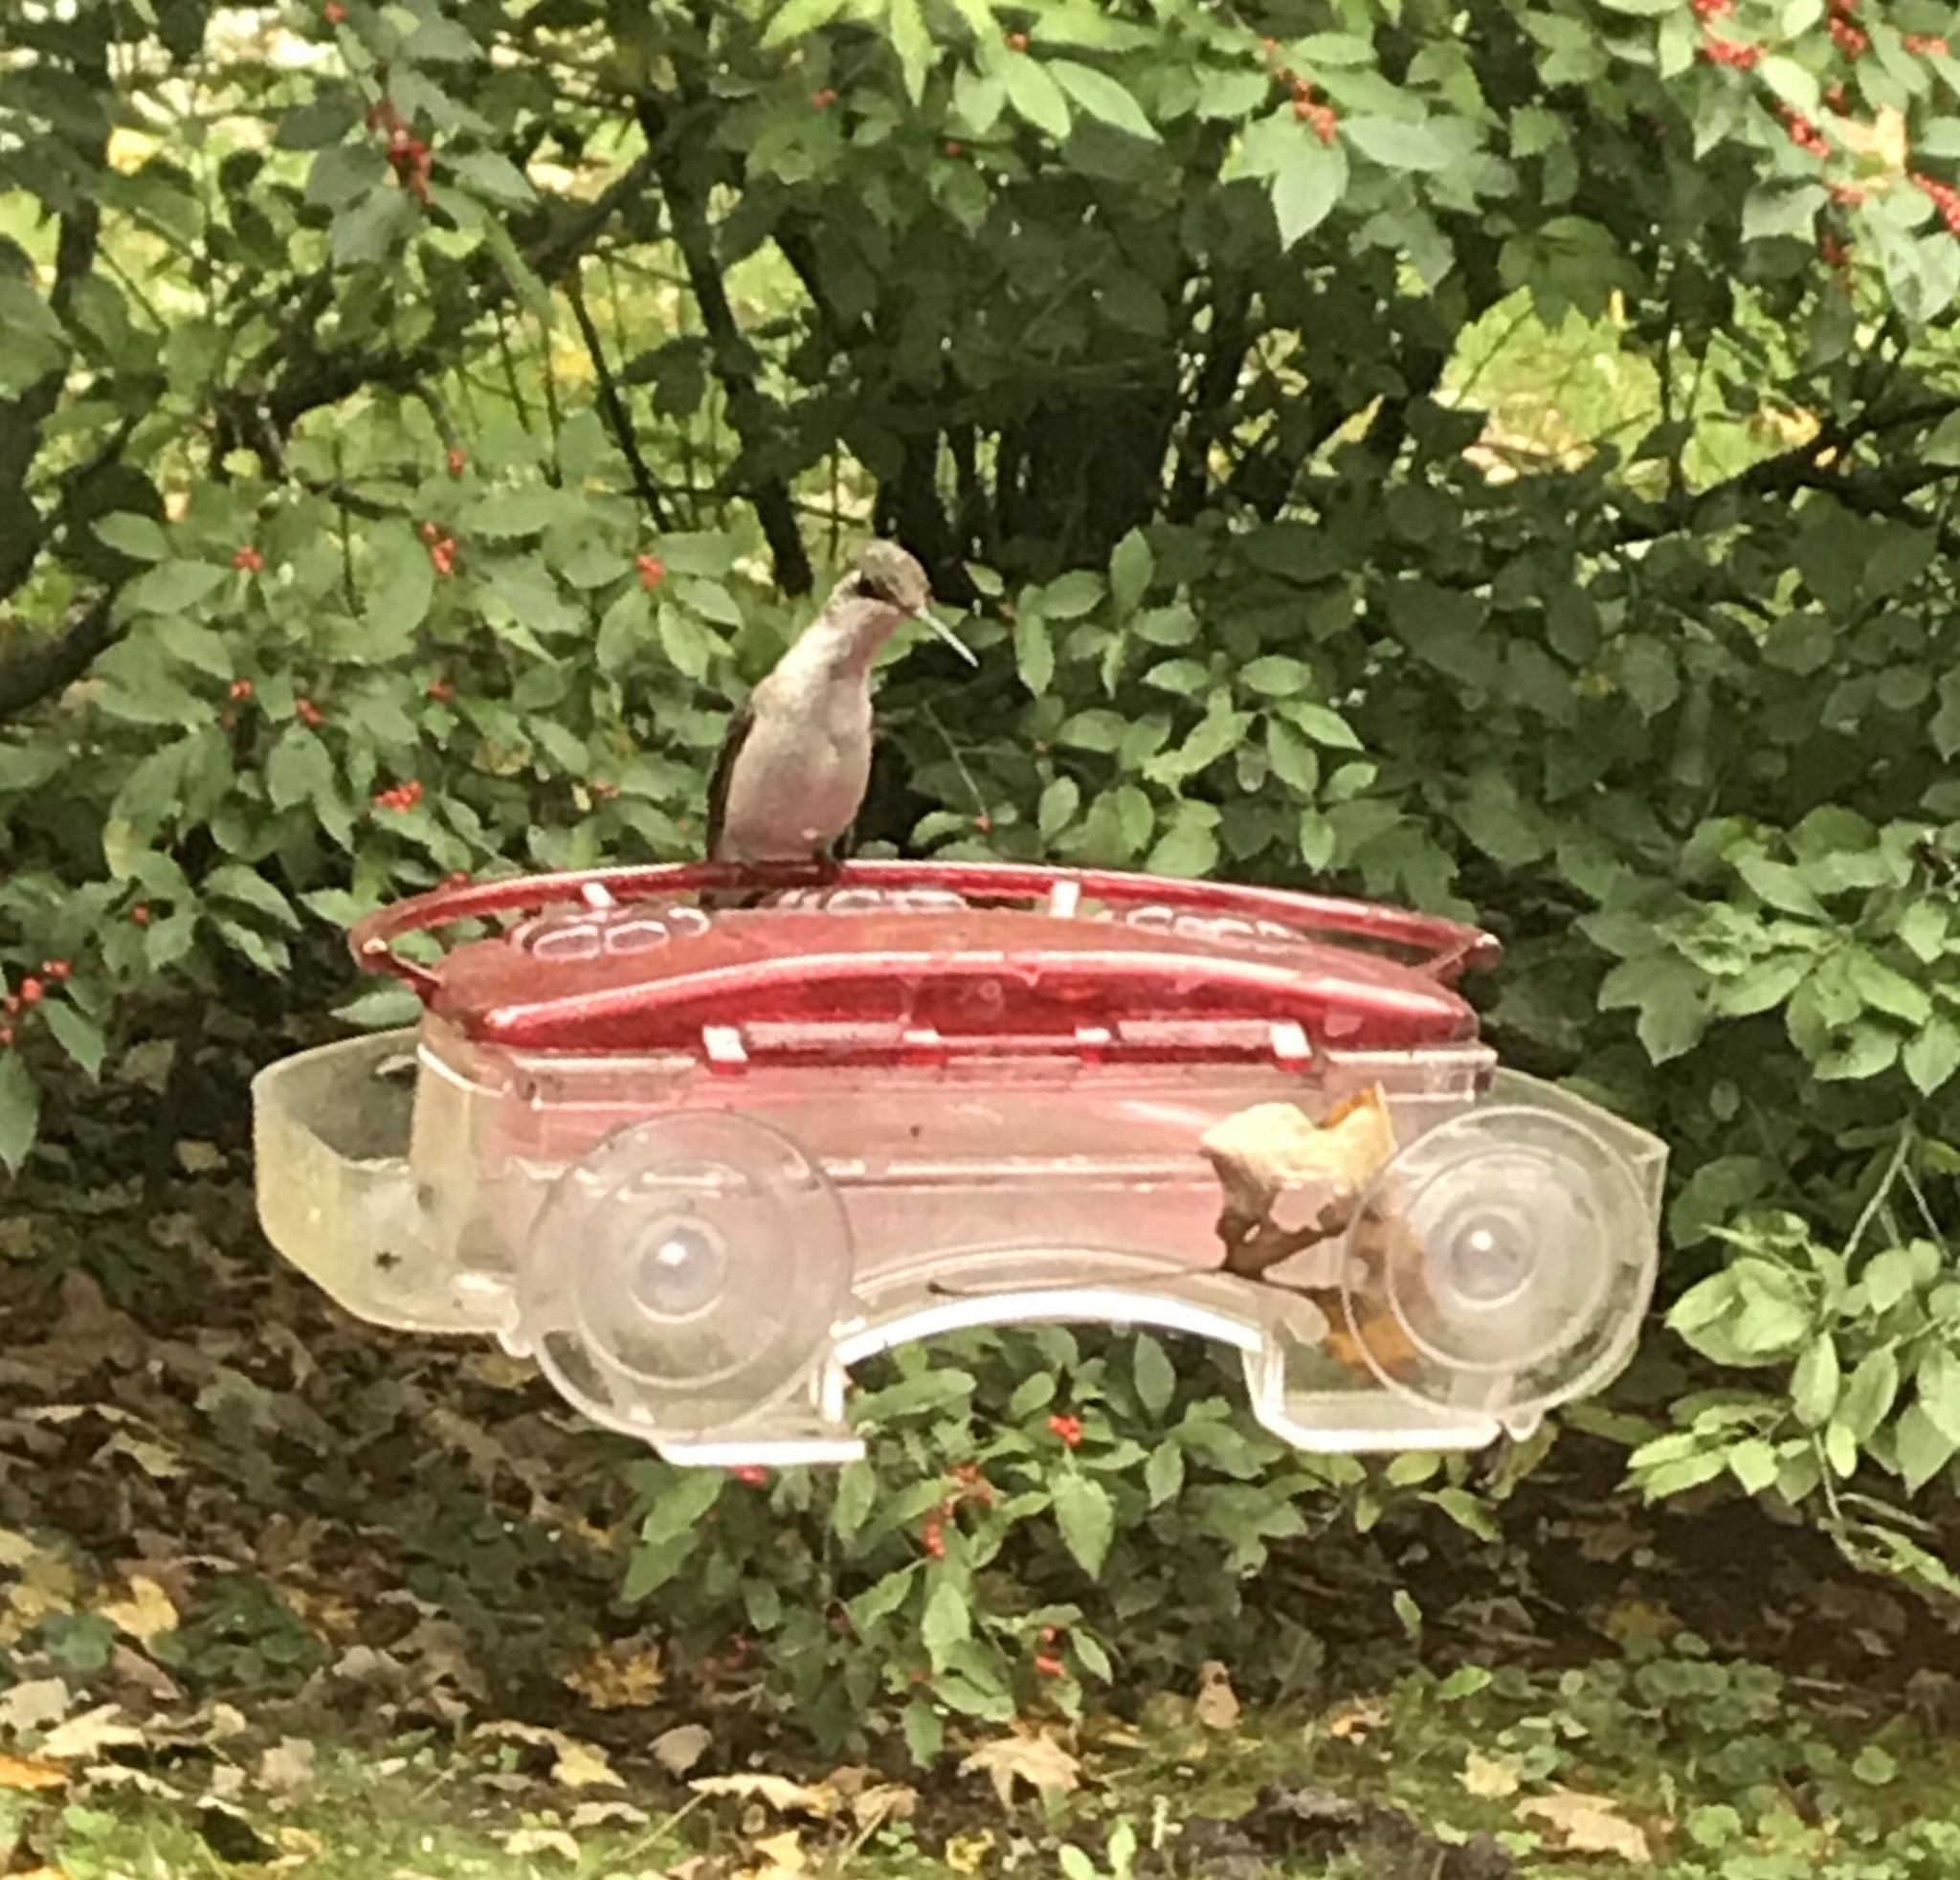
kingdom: Animalia
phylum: Chordata
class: Aves
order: Apodiformes
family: Trochilidae
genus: Archilochus
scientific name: Archilochus colubris
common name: Ruby-throated hummingbird
